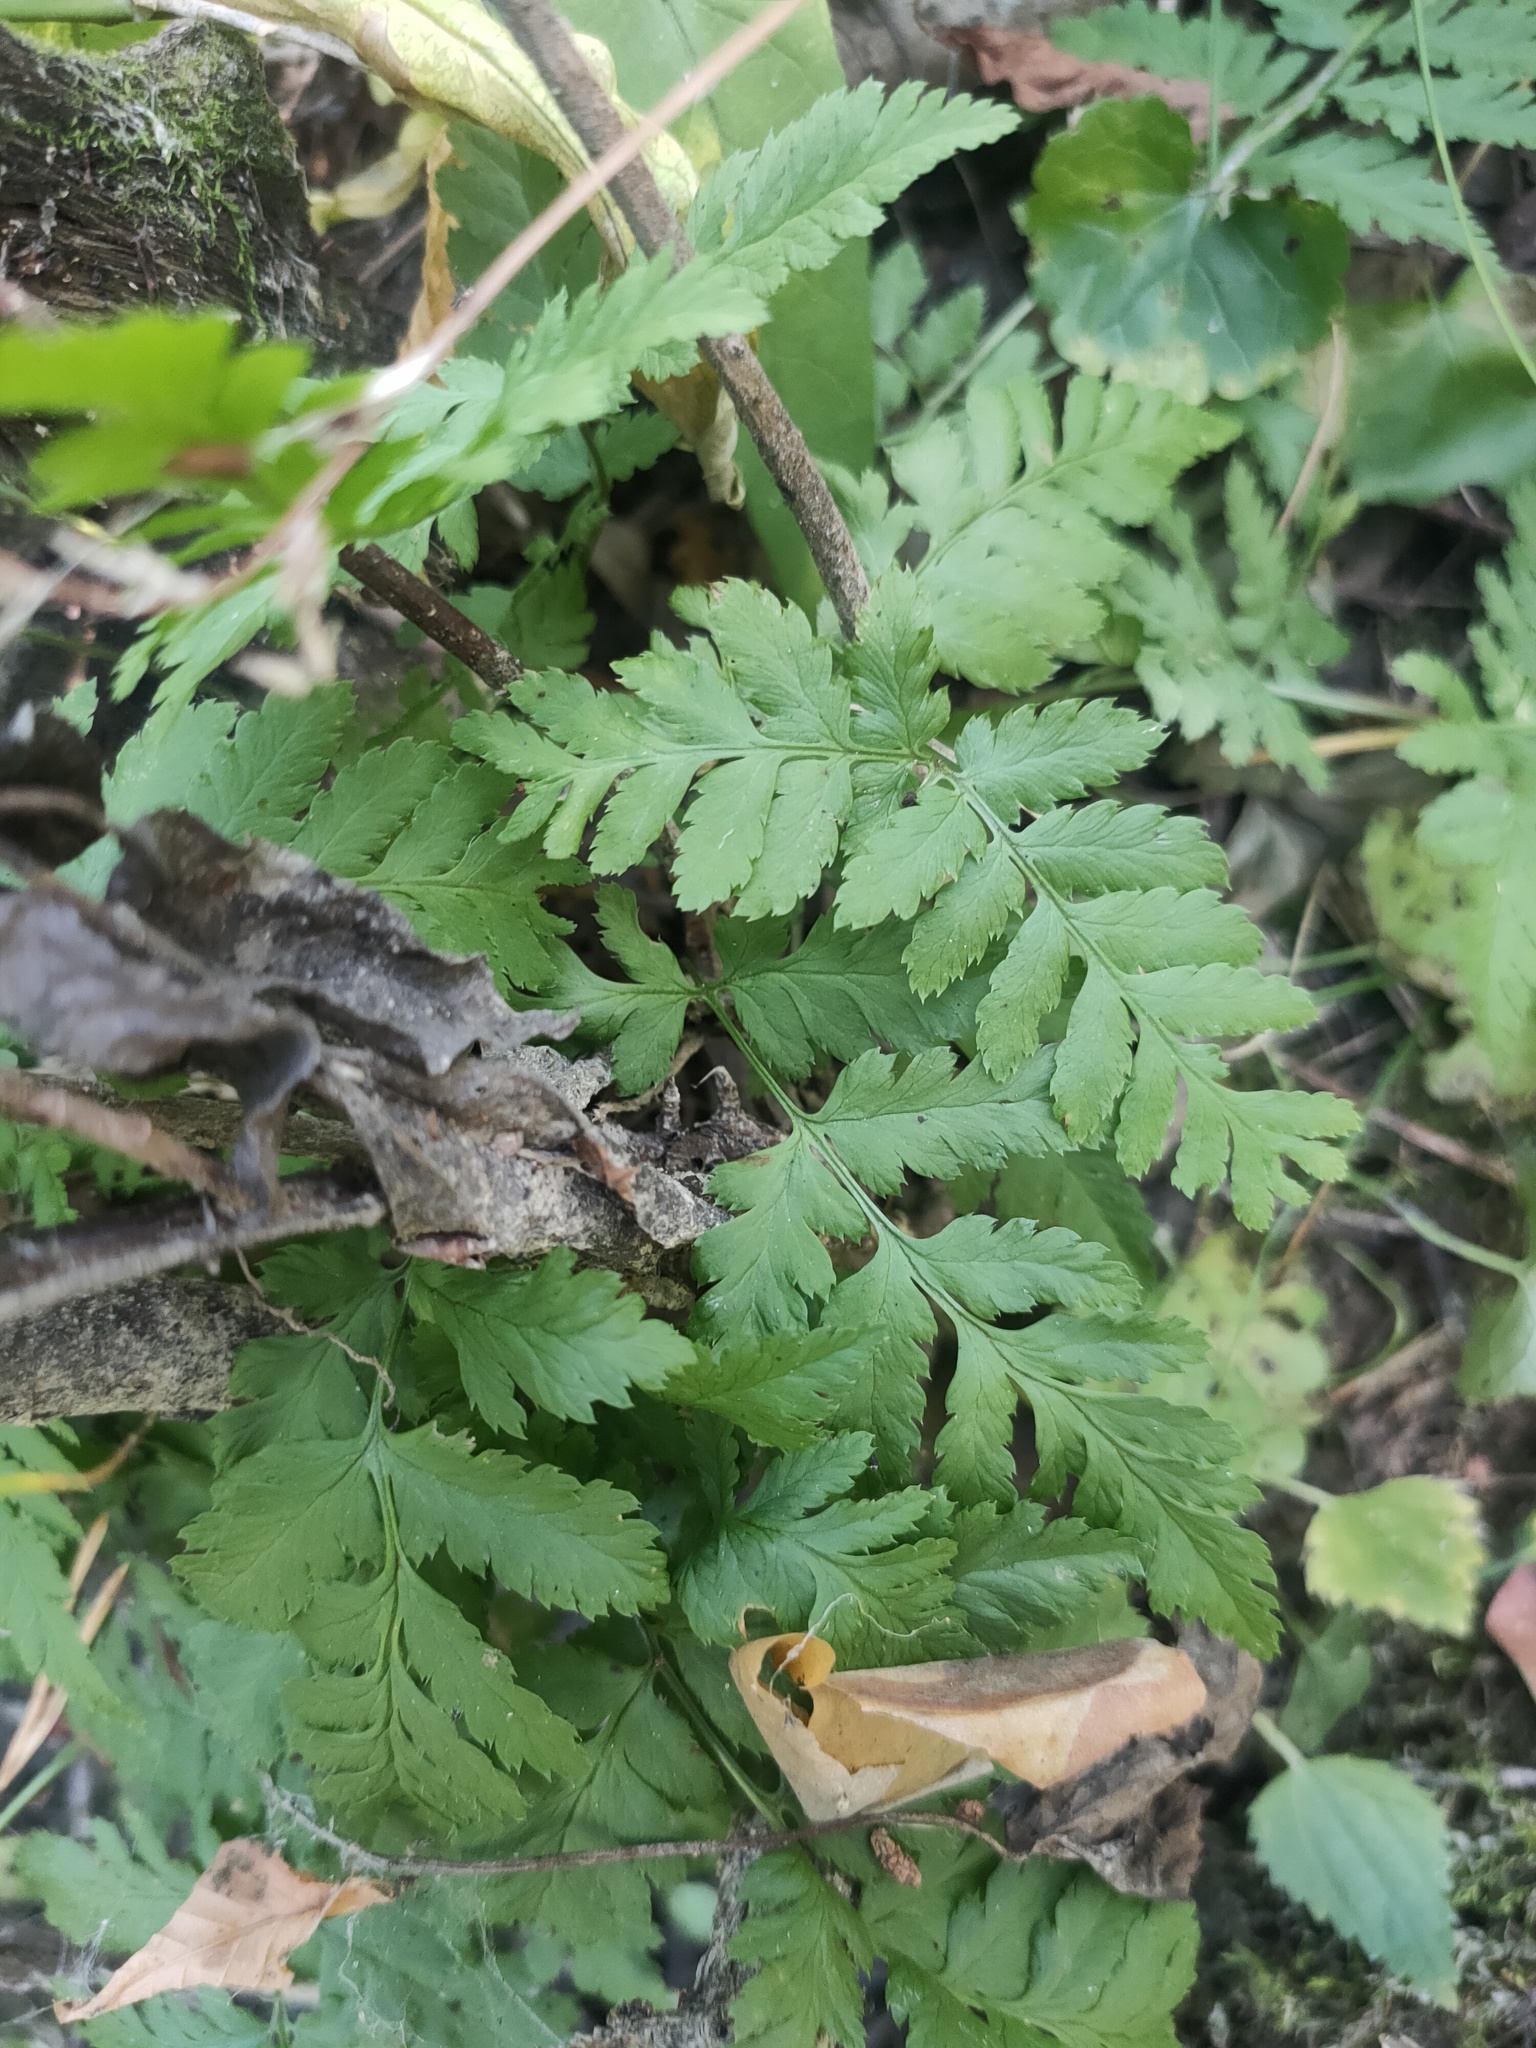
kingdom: Plantae
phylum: Tracheophyta
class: Polypodiopsida
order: Polypodiales
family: Dryopteridaceae
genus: Dryopteris
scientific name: Dryopteris carthusiana
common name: Narrow buckler-fern
